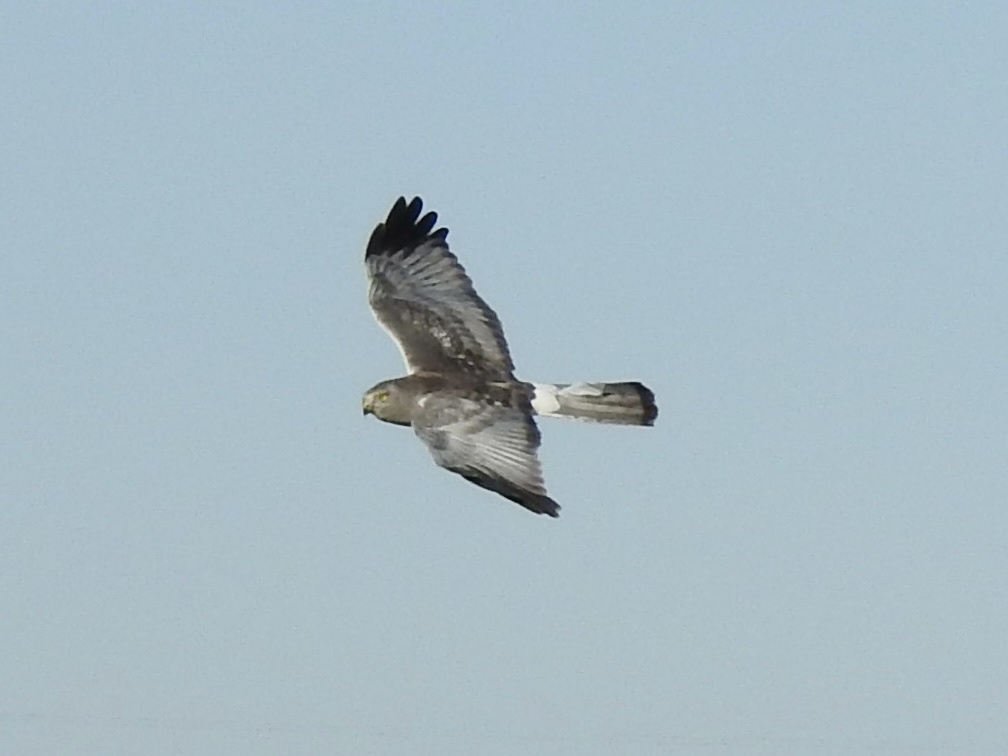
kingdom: Animalia
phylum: Chordata
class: Aves
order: Accipitriformes
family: Accipitridae
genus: Circus
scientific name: Circus cyaneus
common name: Hen harrier
